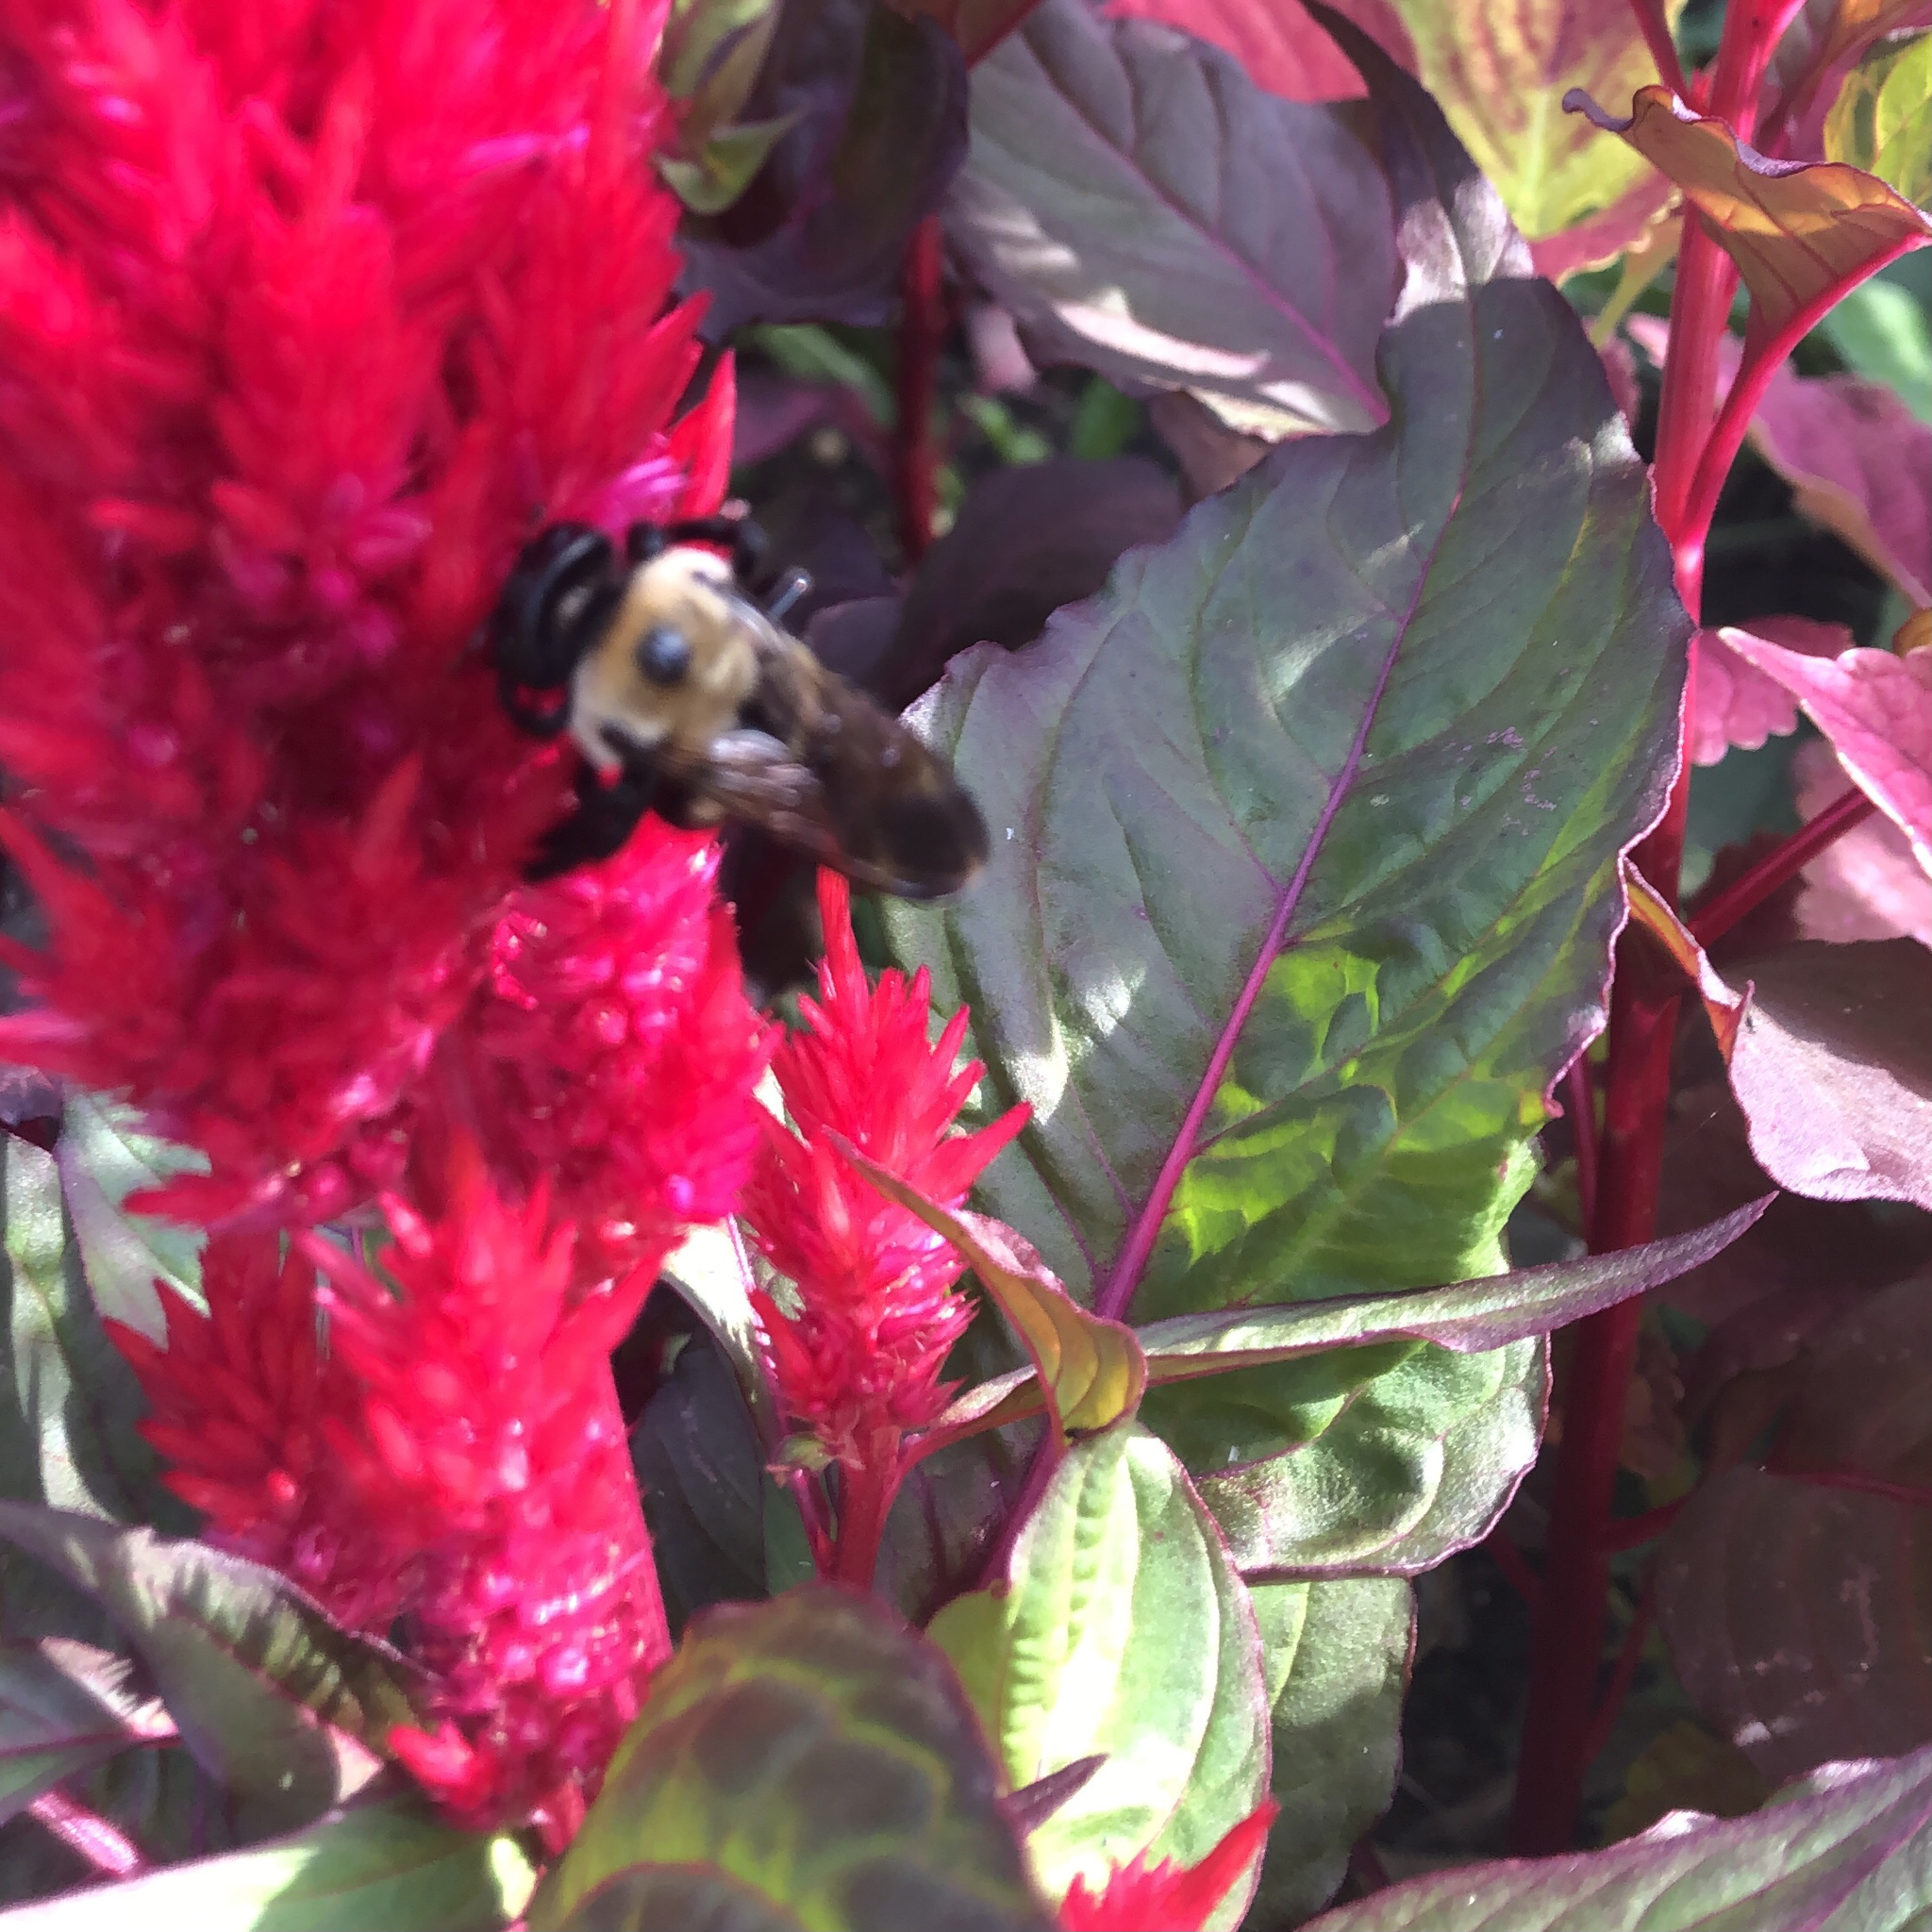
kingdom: Animalia
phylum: Arthropoda
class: Insecta
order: Hymenoptera
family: Apidae
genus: Xylocopa
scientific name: Xylocopa virginica
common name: Carpenter bee
